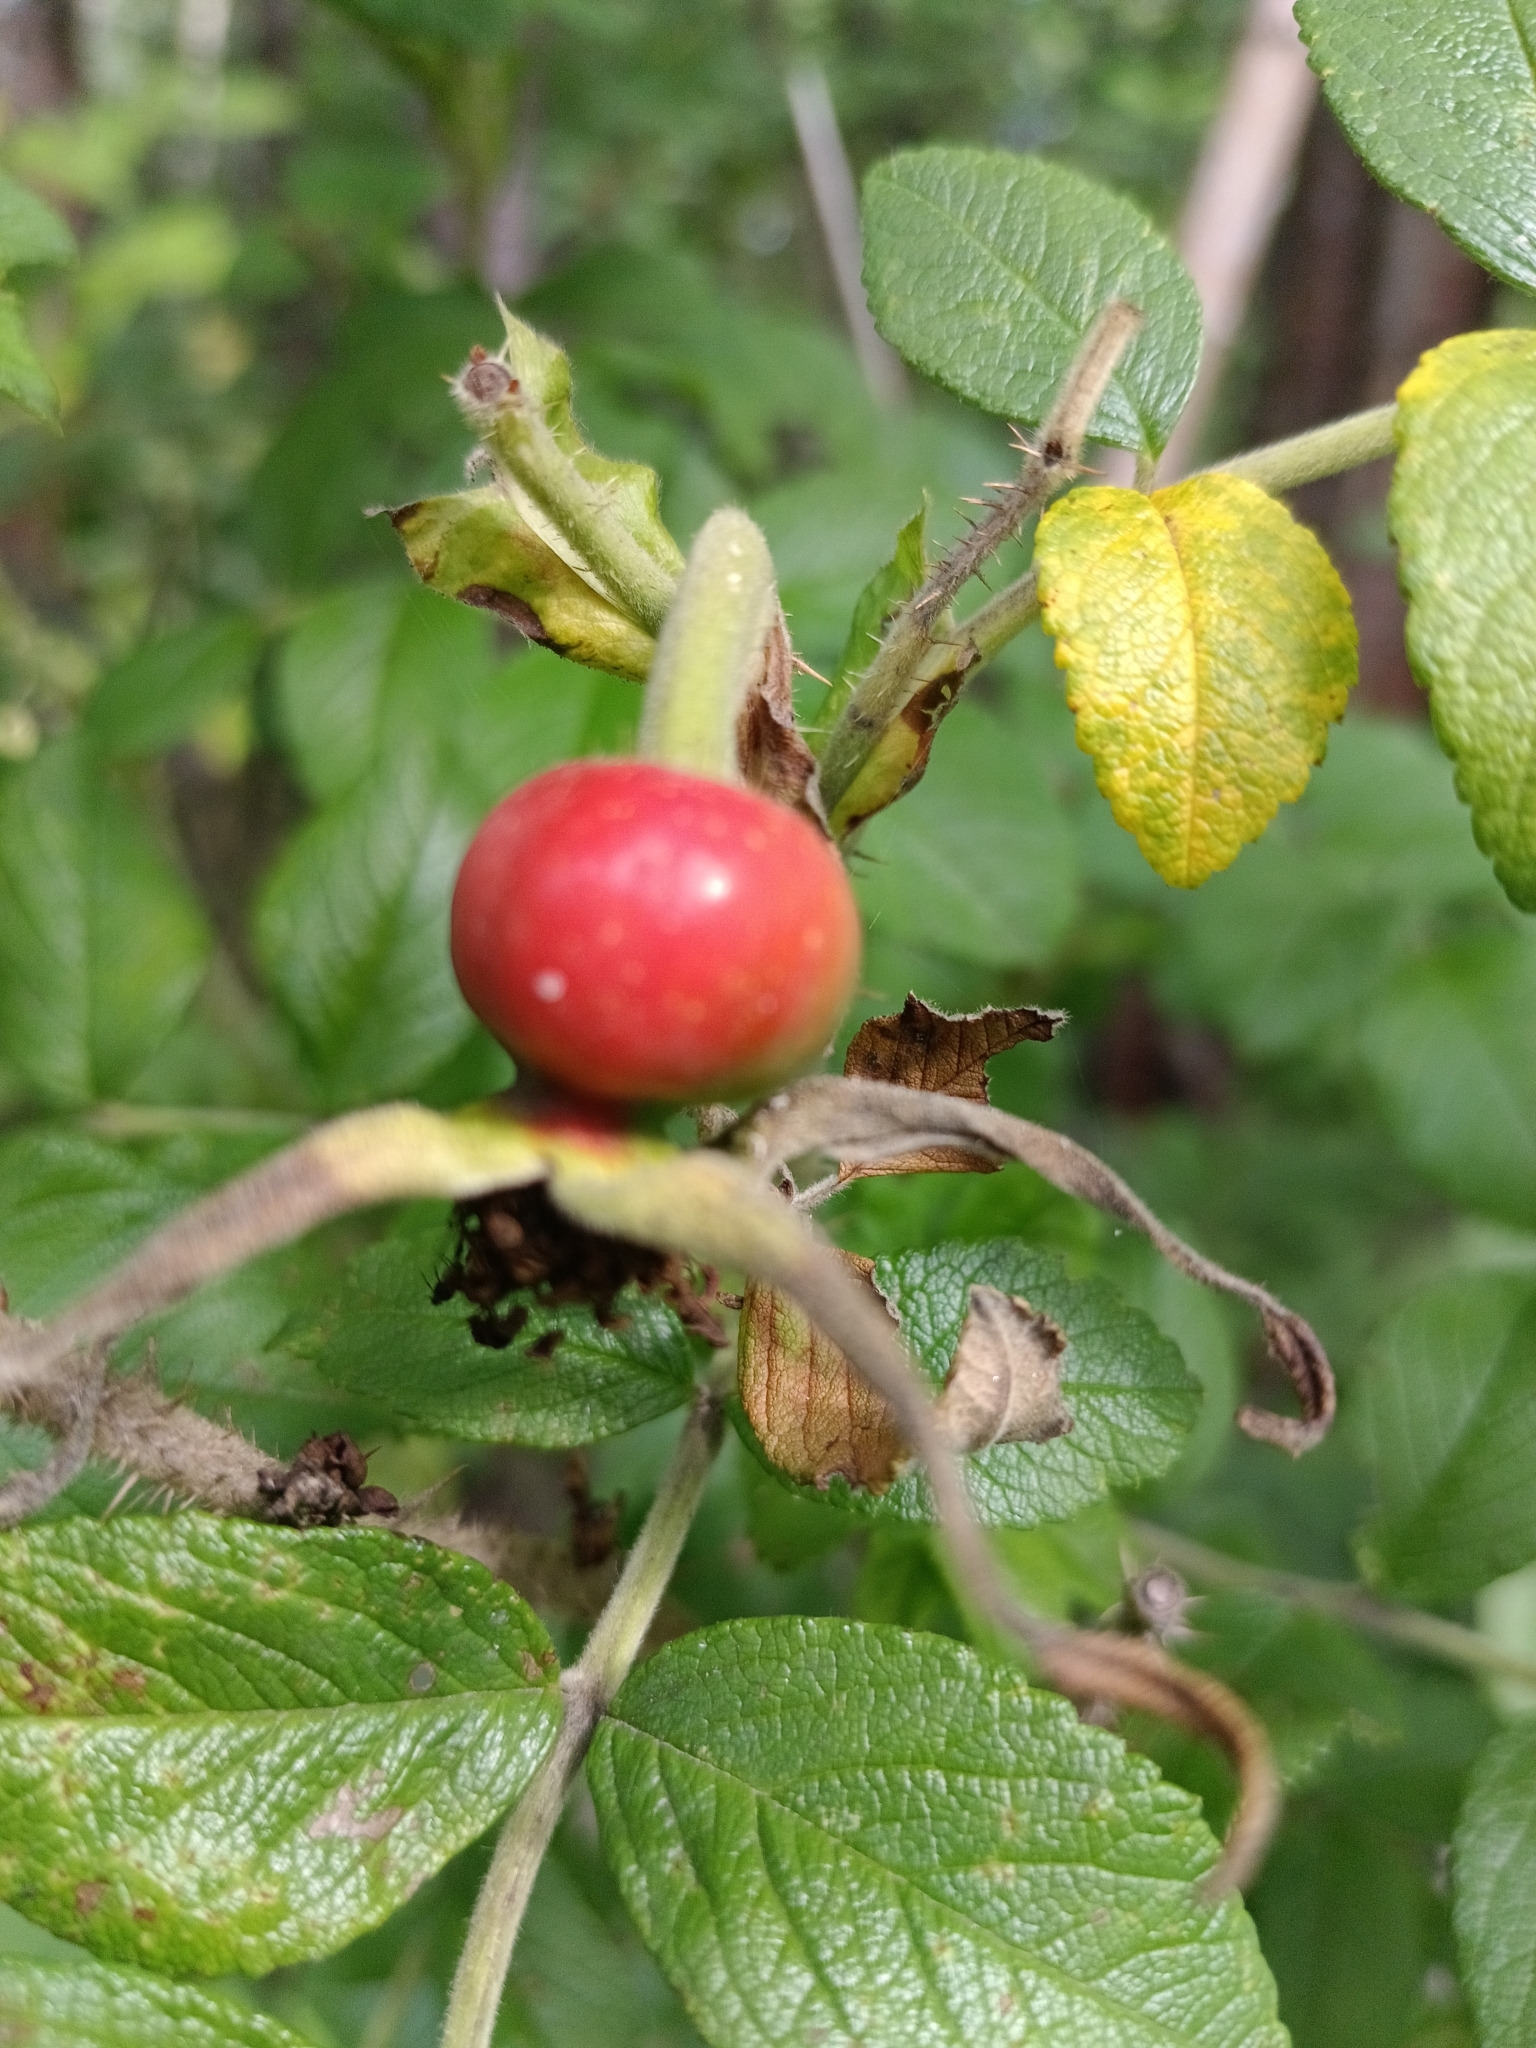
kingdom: Plantae
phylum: Tracheophyta
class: Magnoliopsida
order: Rosales
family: Rosaceae
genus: Rosa
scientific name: Rosa rugosa
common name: Japanese rose
